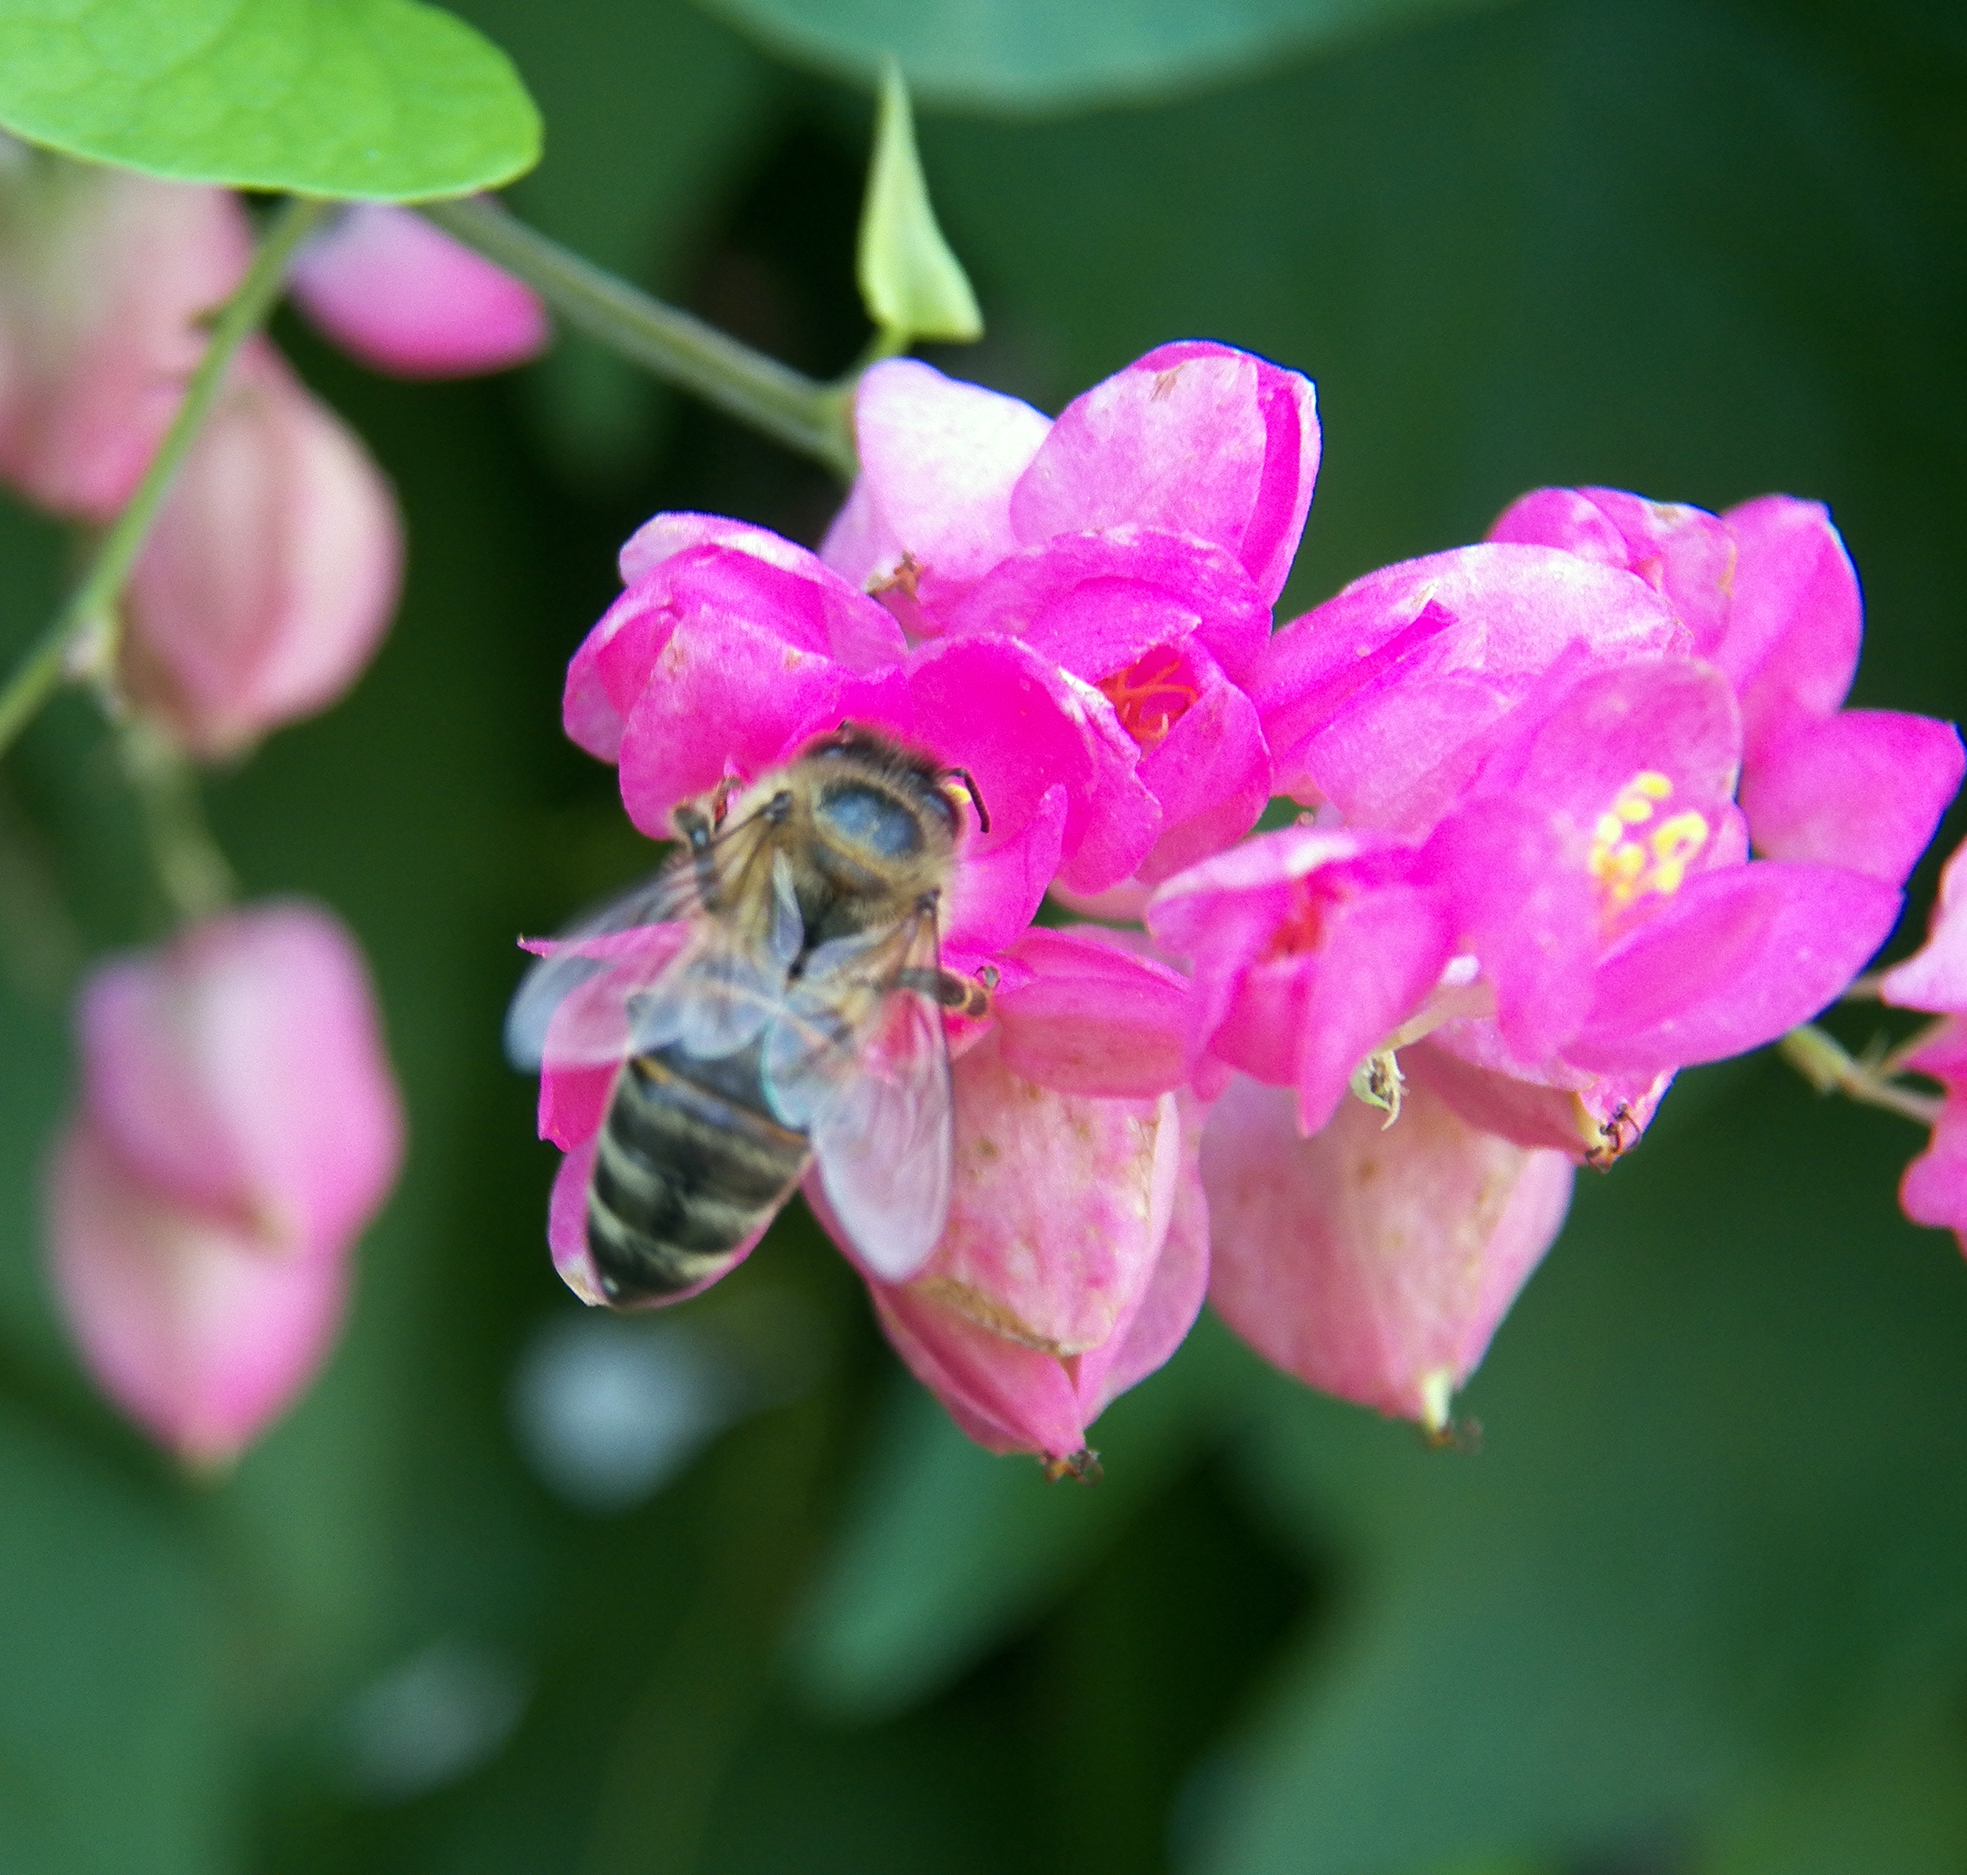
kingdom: Animalia
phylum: Arthropoda
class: Insecta
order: Hymenoptera
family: Apidae
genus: Apis
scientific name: Apis mellifera
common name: Honey bee
